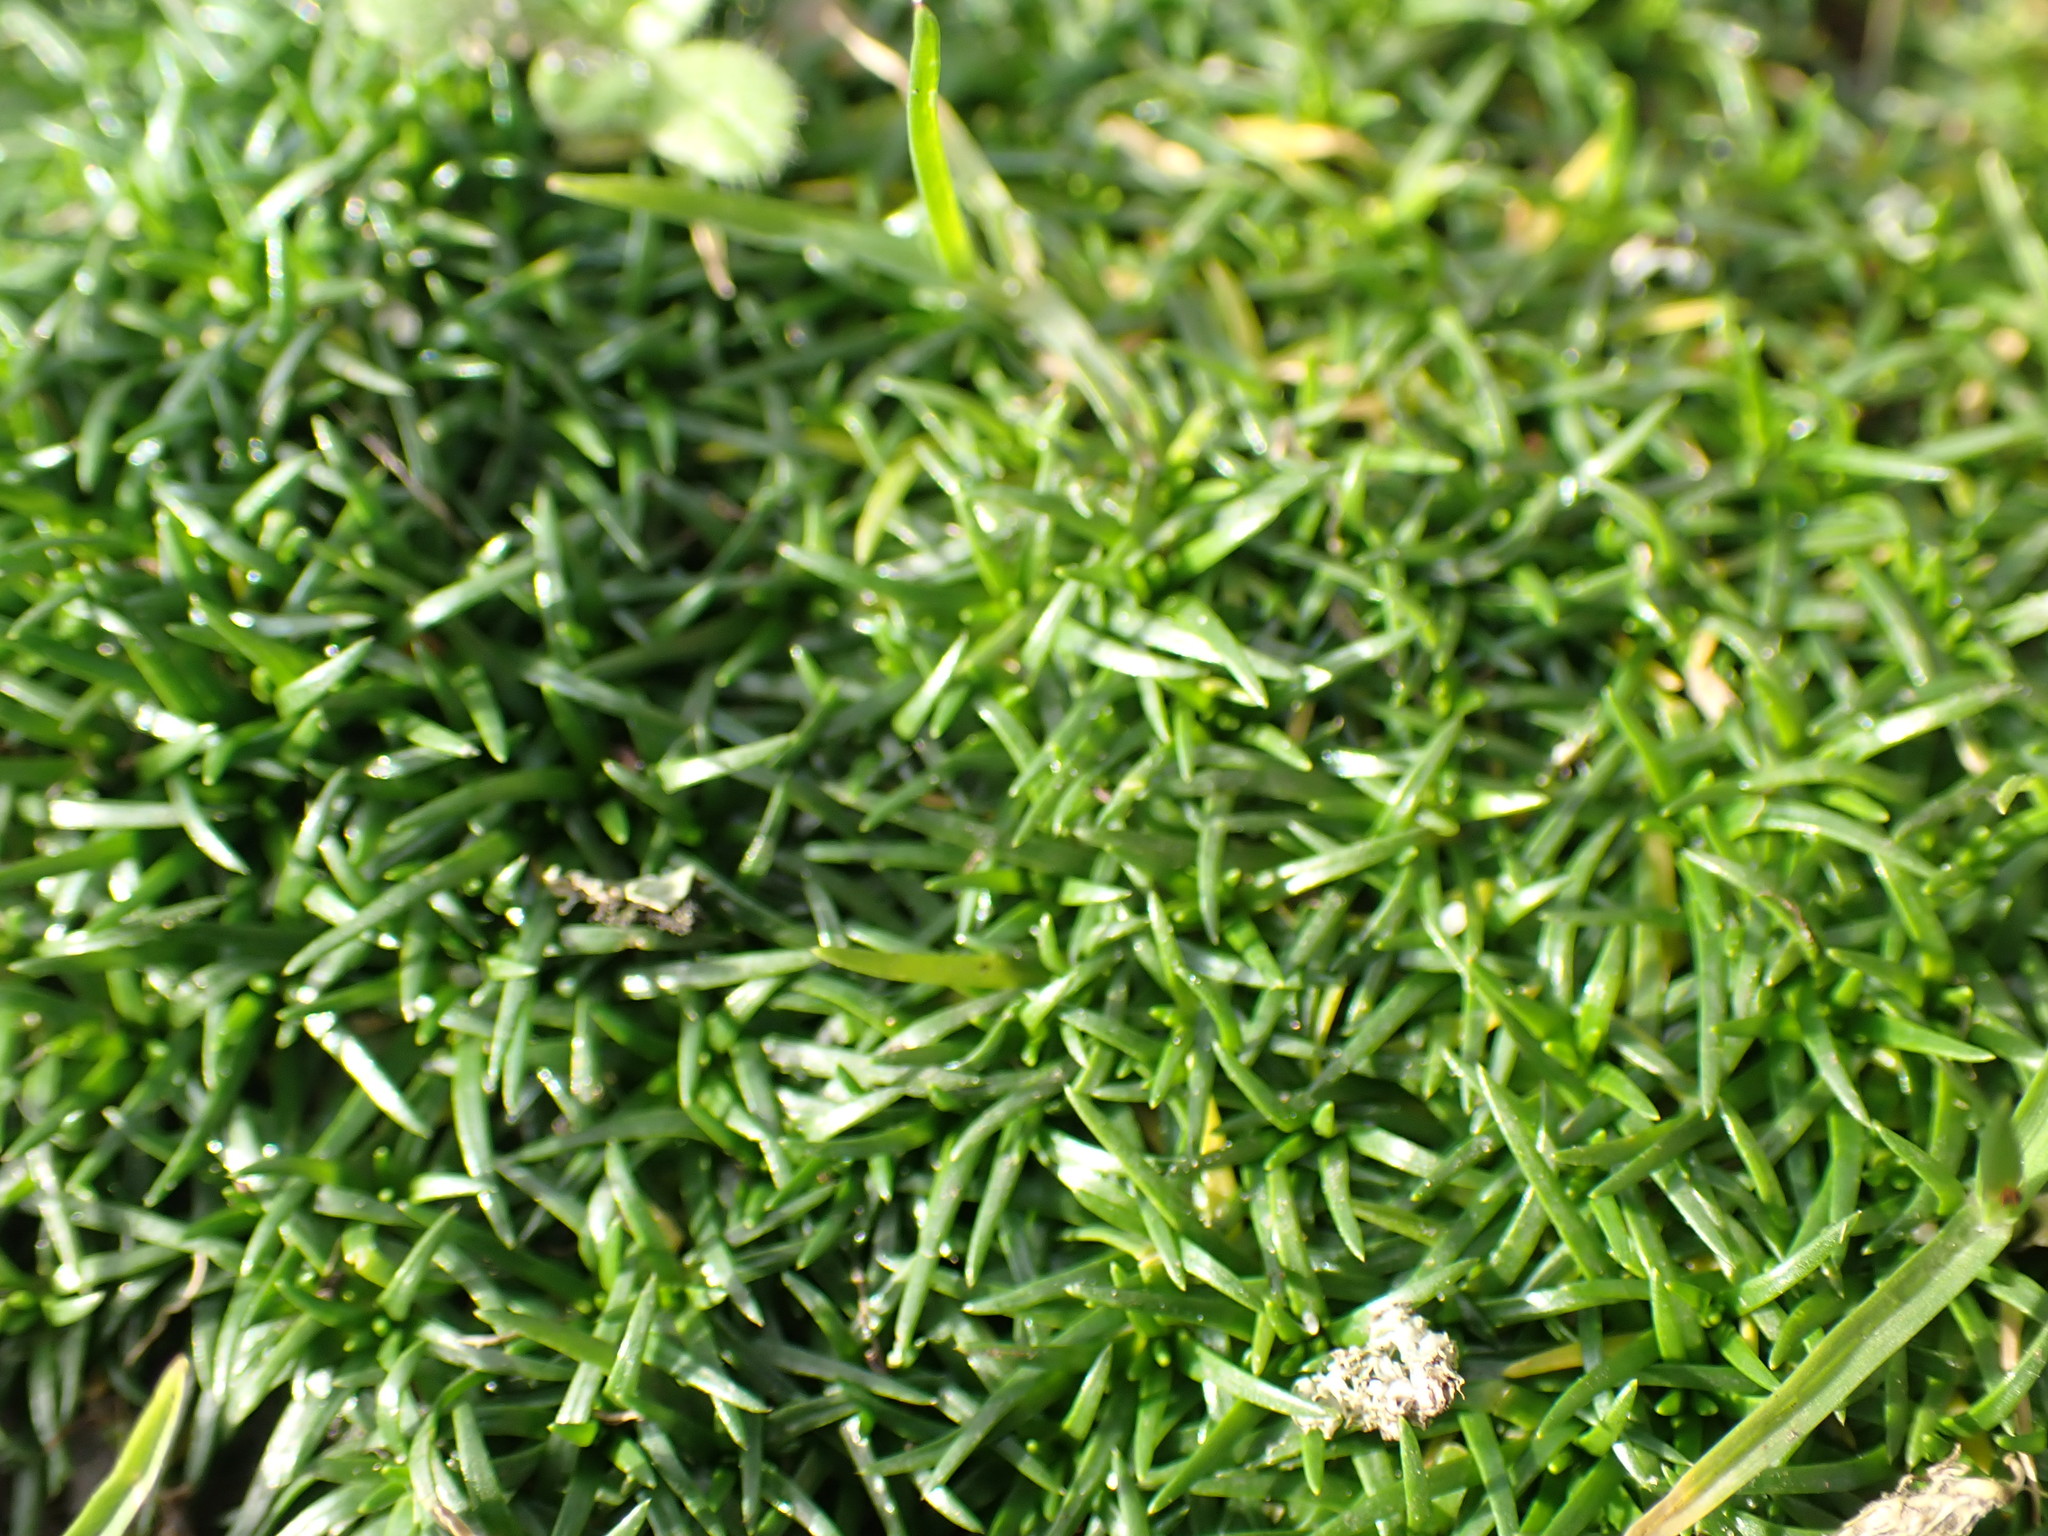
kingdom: Plantae
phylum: Tracheophyta
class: Magnoliopsida
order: Caryophyllales
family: Caryophyllaceae
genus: Sagina
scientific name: Sagina procumbens
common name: Procumbent pearlwort
